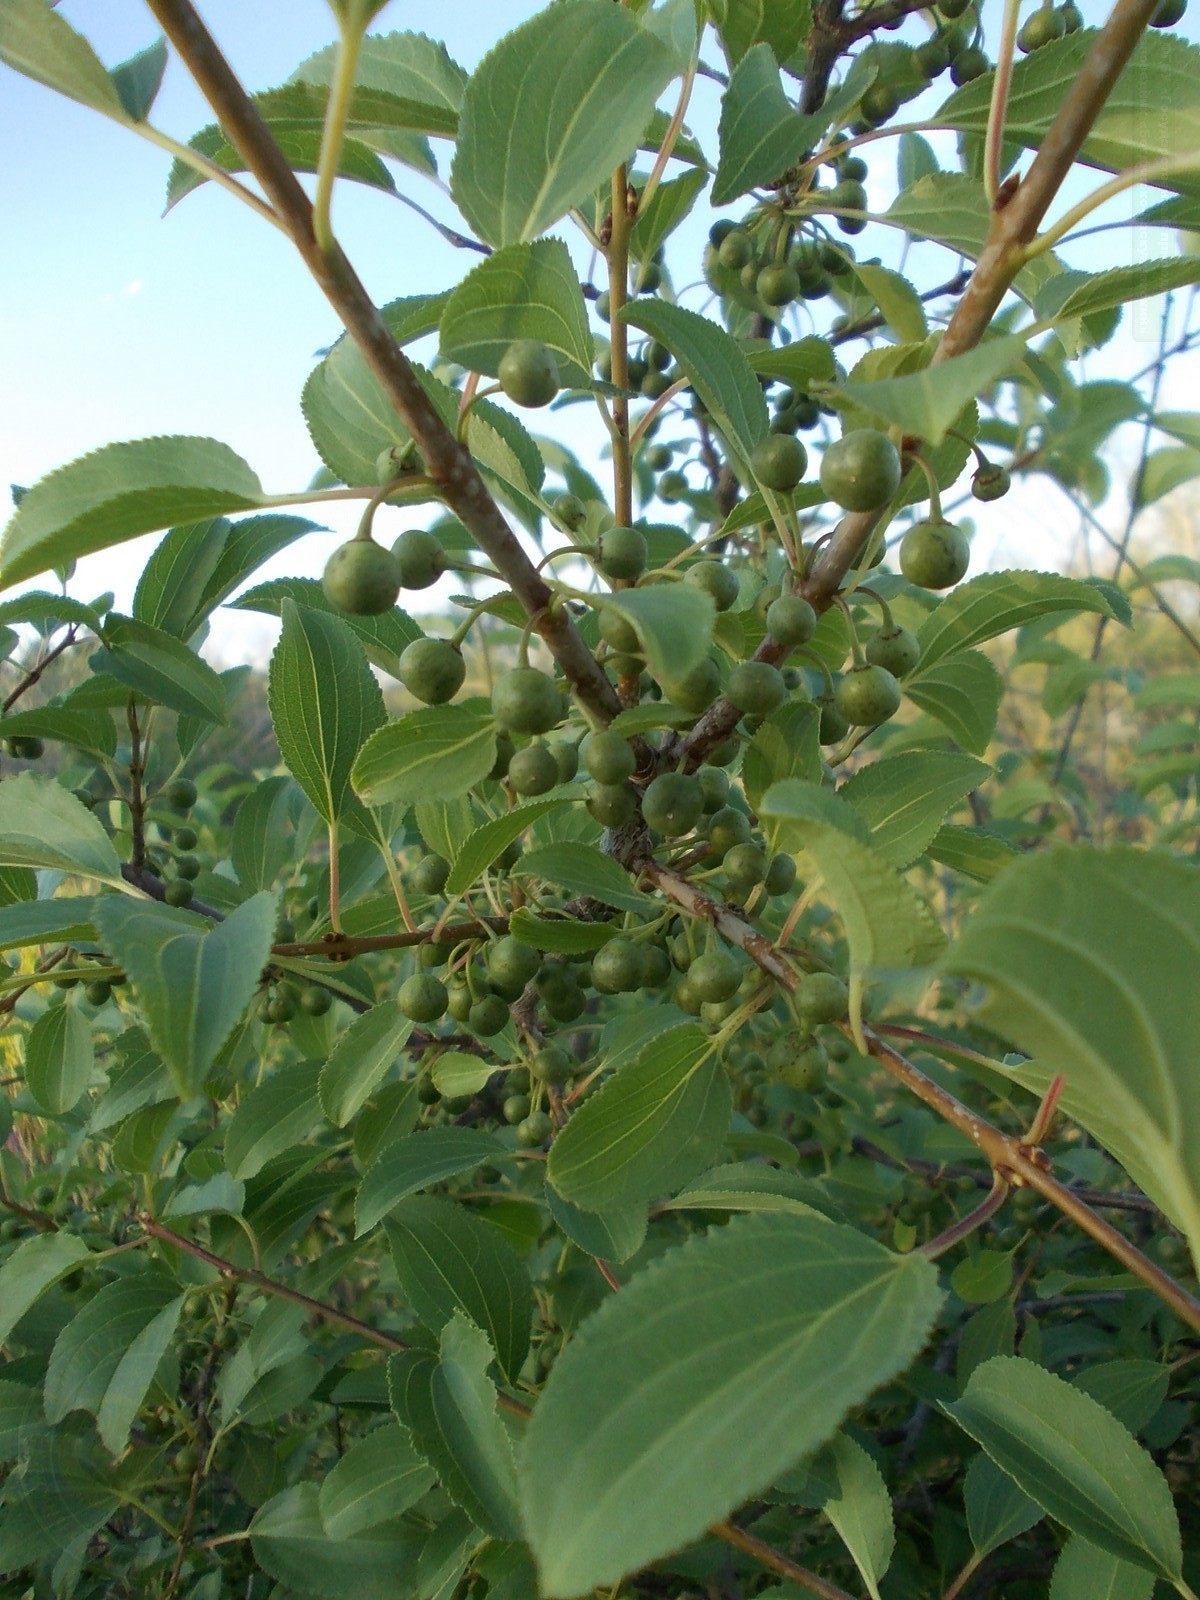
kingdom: Plantae
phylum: Tracheophyta
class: Magnoliopsida
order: Rosales
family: Rhamnaceae
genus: Rhamnus
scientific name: Rhamnus cathartica
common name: Common buckthorn
